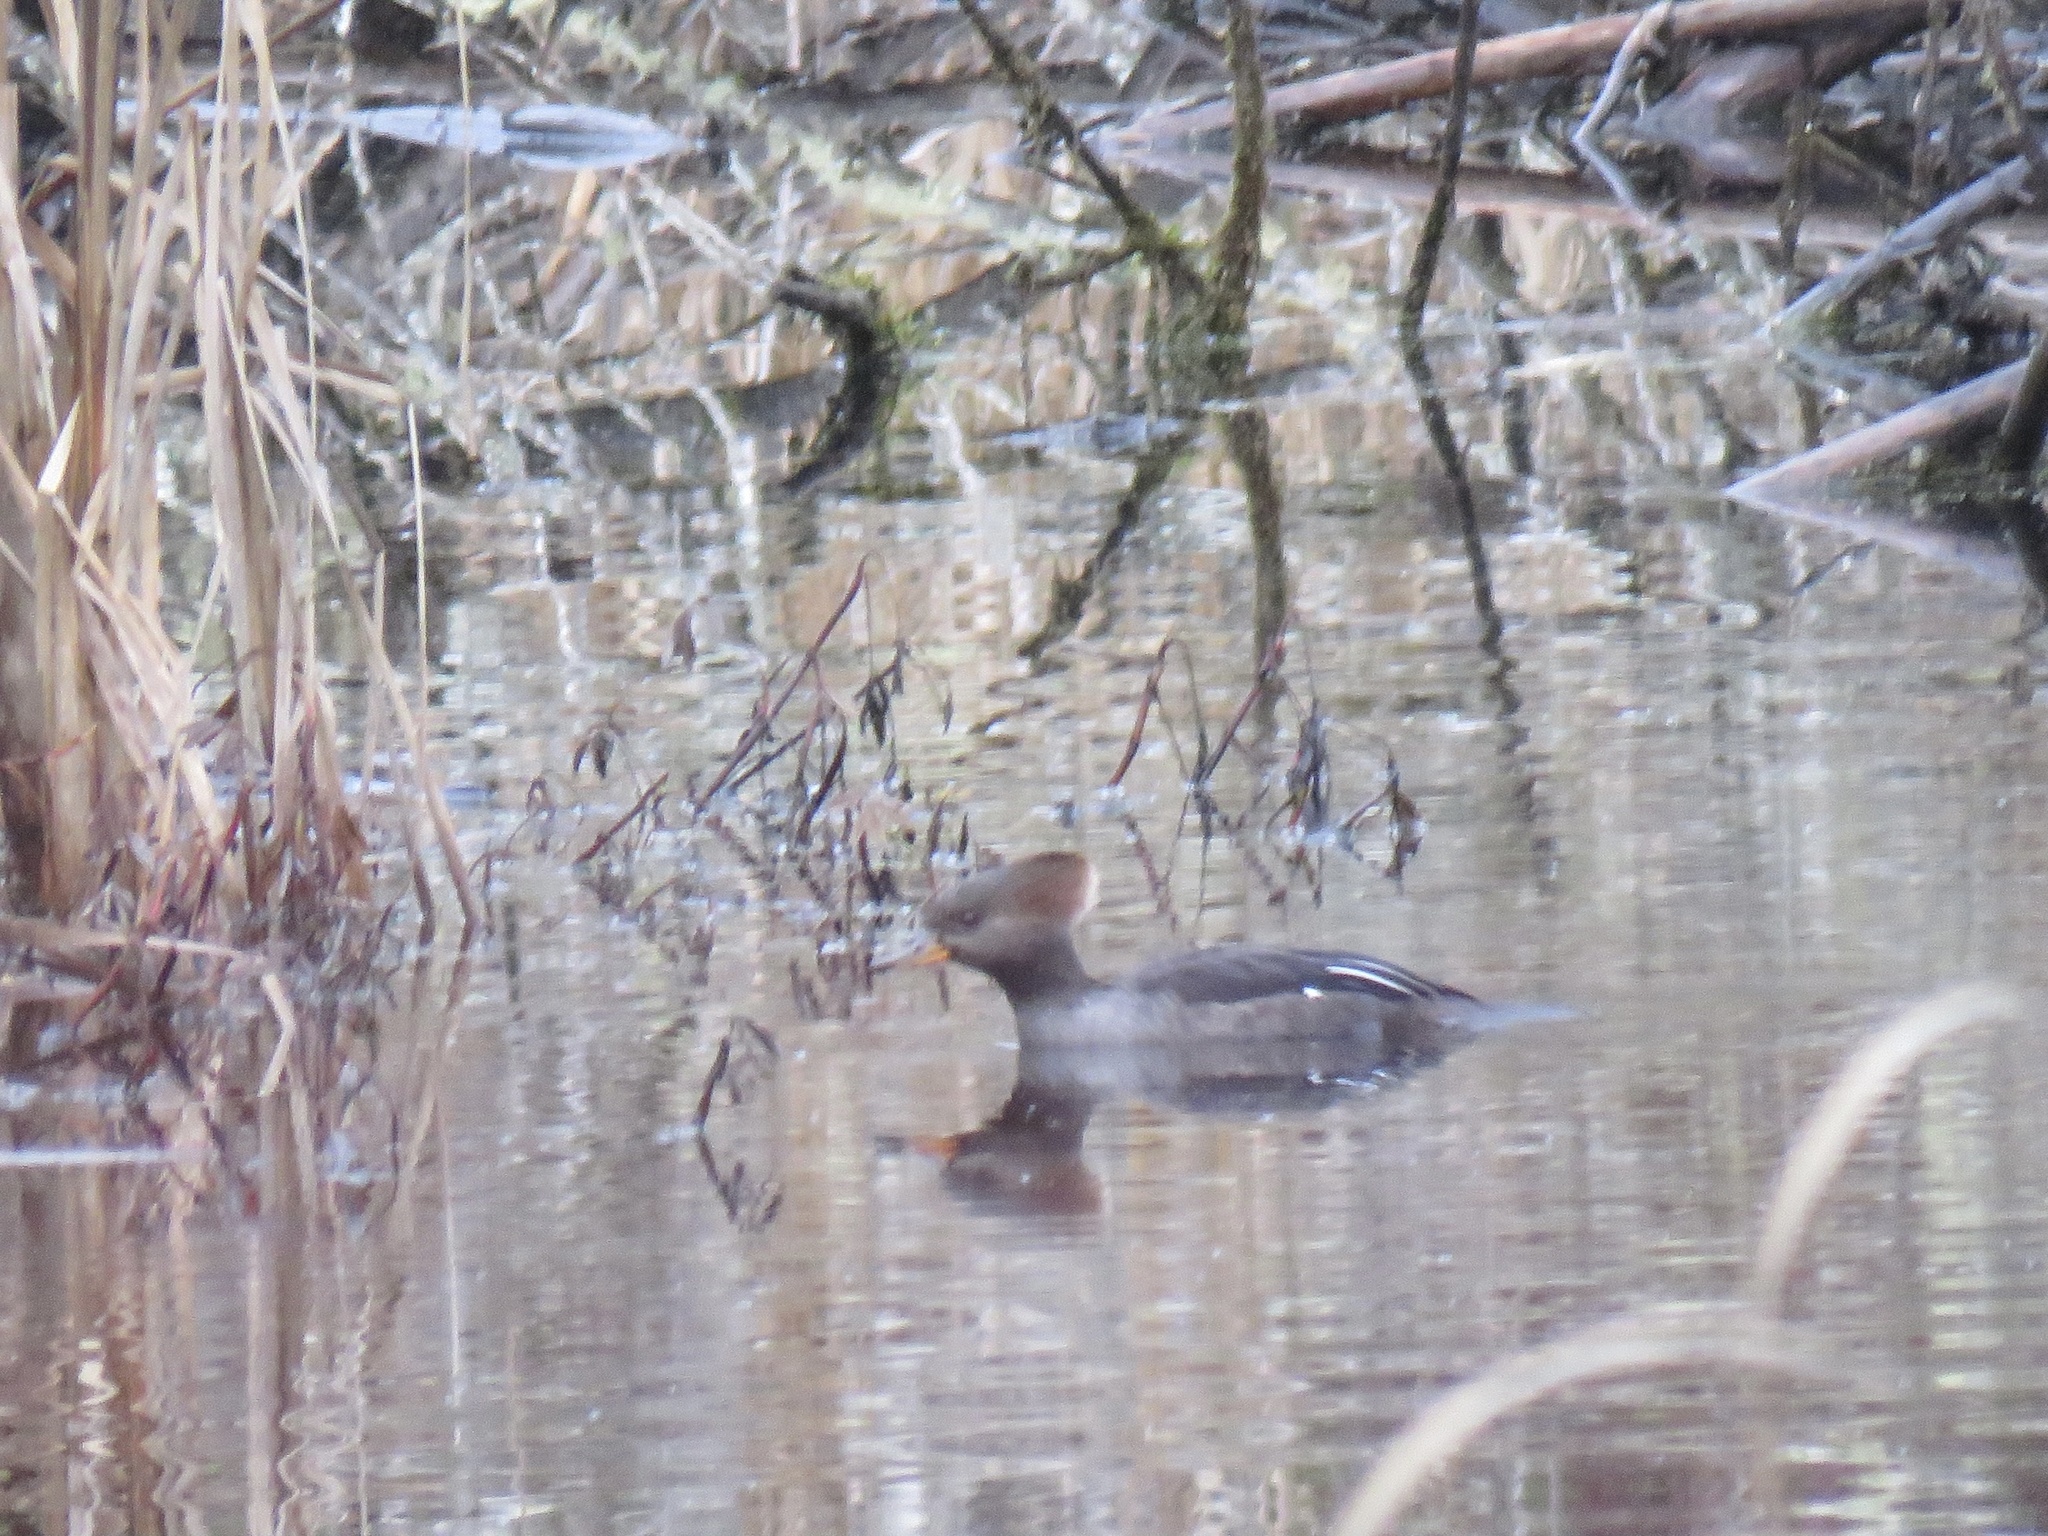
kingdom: Animalia
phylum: Chordata
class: Aves
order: Anseriformes
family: Anatidae
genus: Lophodytes
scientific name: Lophodytes cucullatus
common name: Hooded merganser
